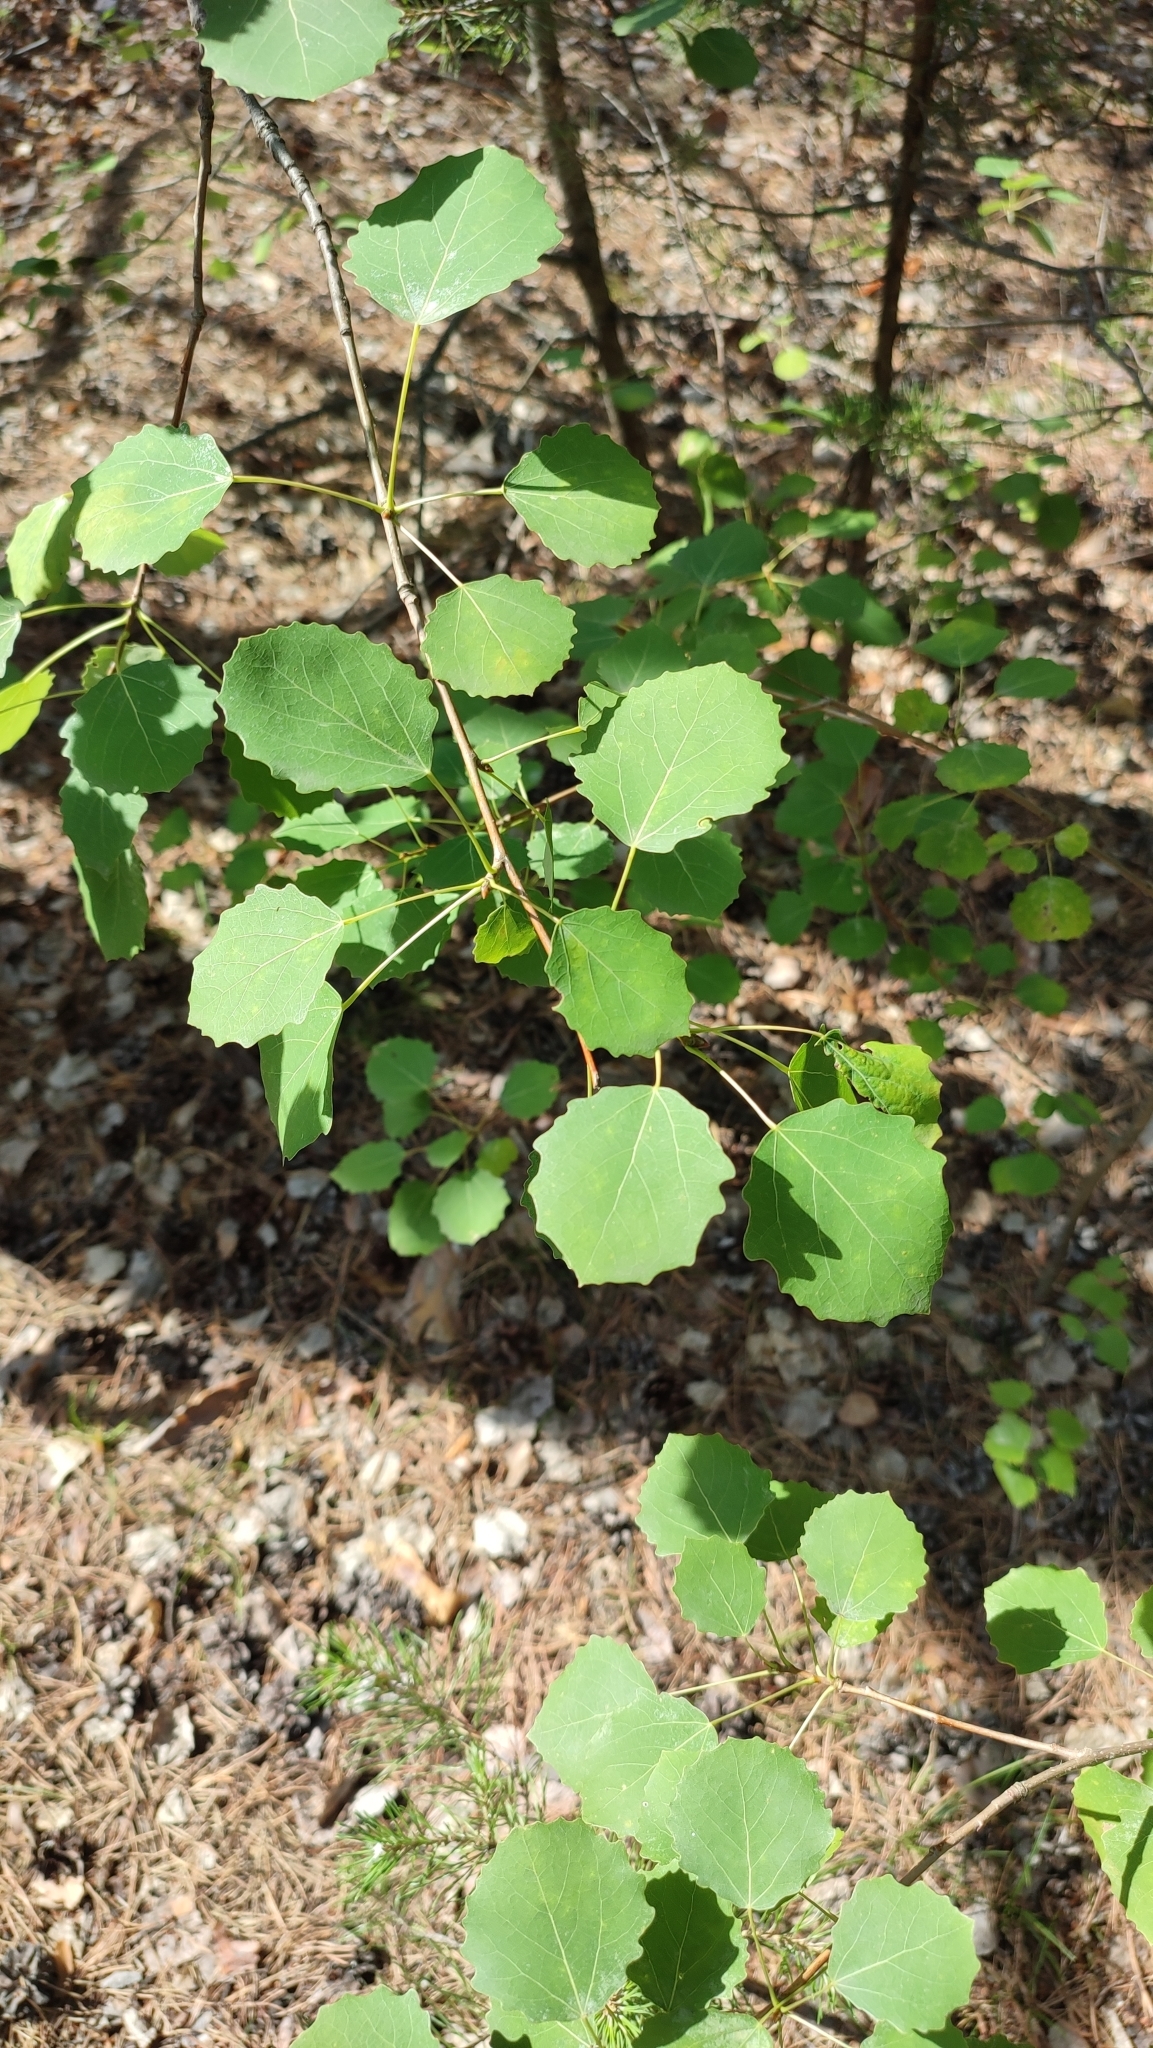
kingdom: Plantae
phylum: Tracheophyta
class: Magnoliopsida
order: Malpighiales
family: Salicaceae
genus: Populus
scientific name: Populus tremula
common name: European aspen
